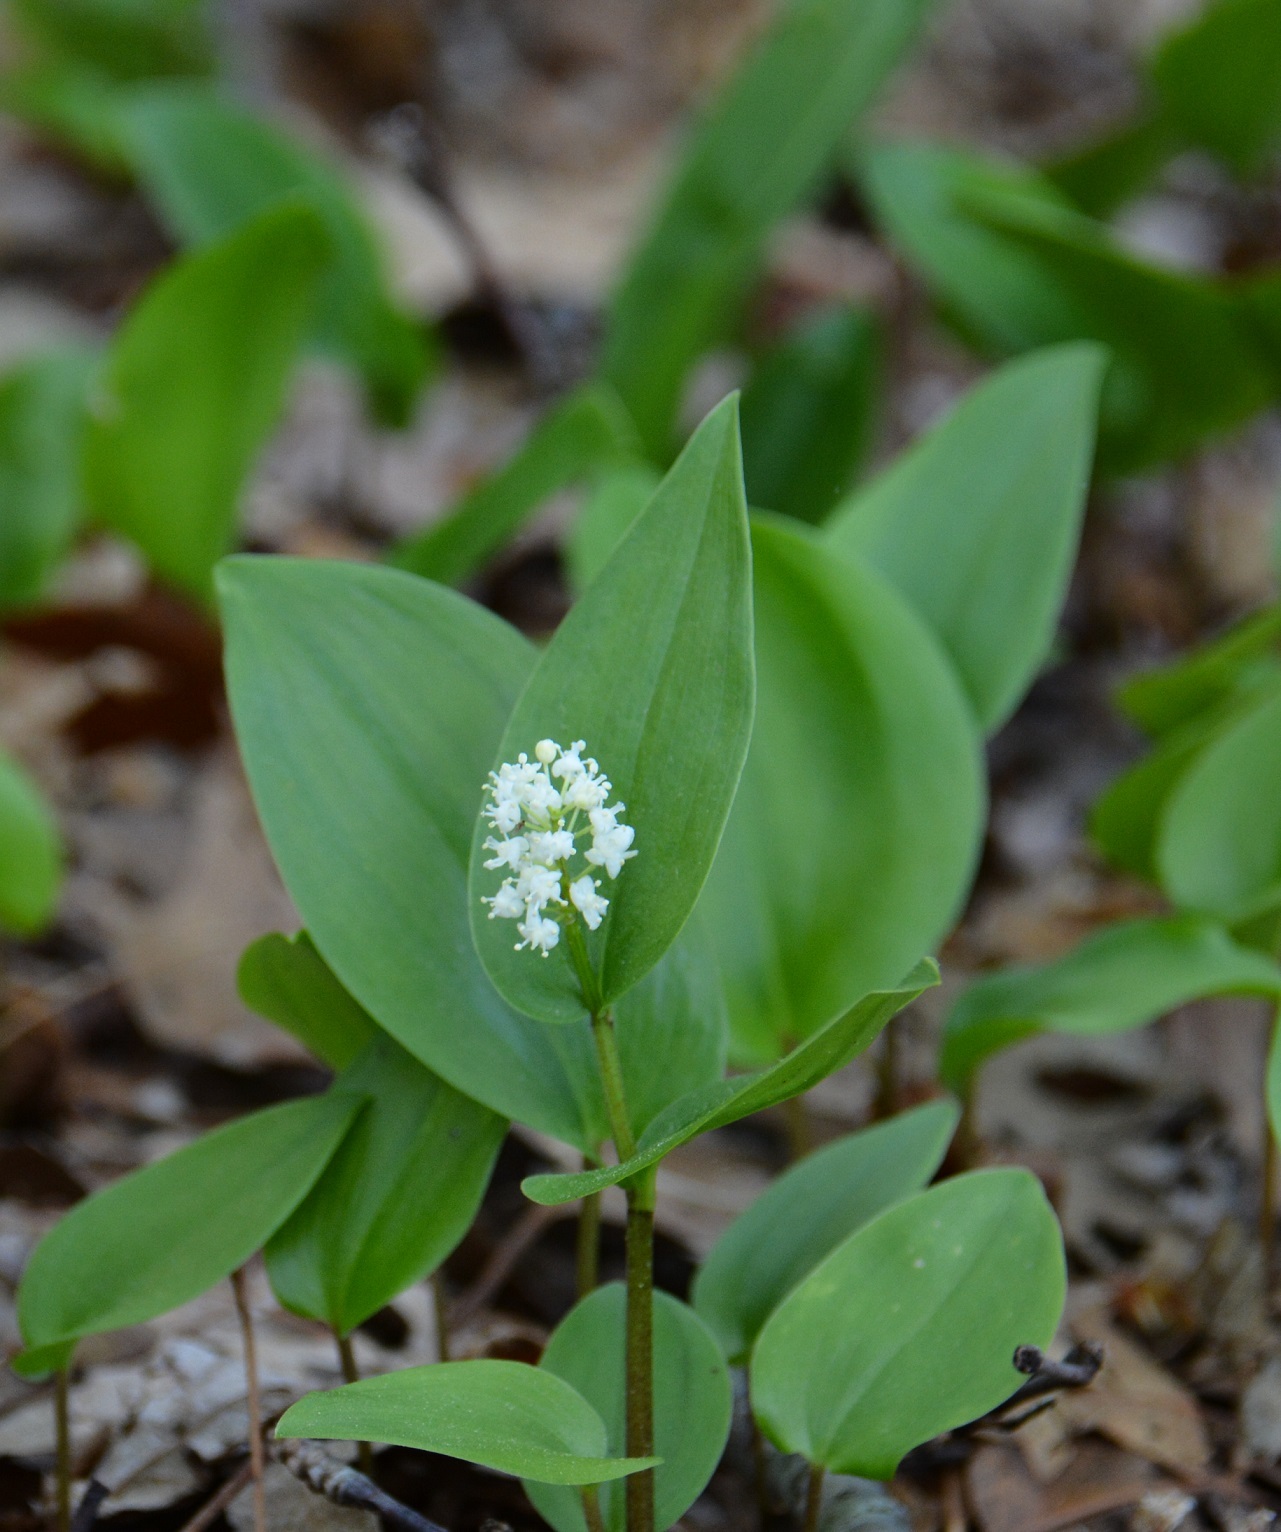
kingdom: Plantae
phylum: Tracheophyta
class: Liliopsida
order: Asparagales
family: Asparagaceae
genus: Maianthemum
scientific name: Maianthemum canadense
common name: False lily-of-the-valley
